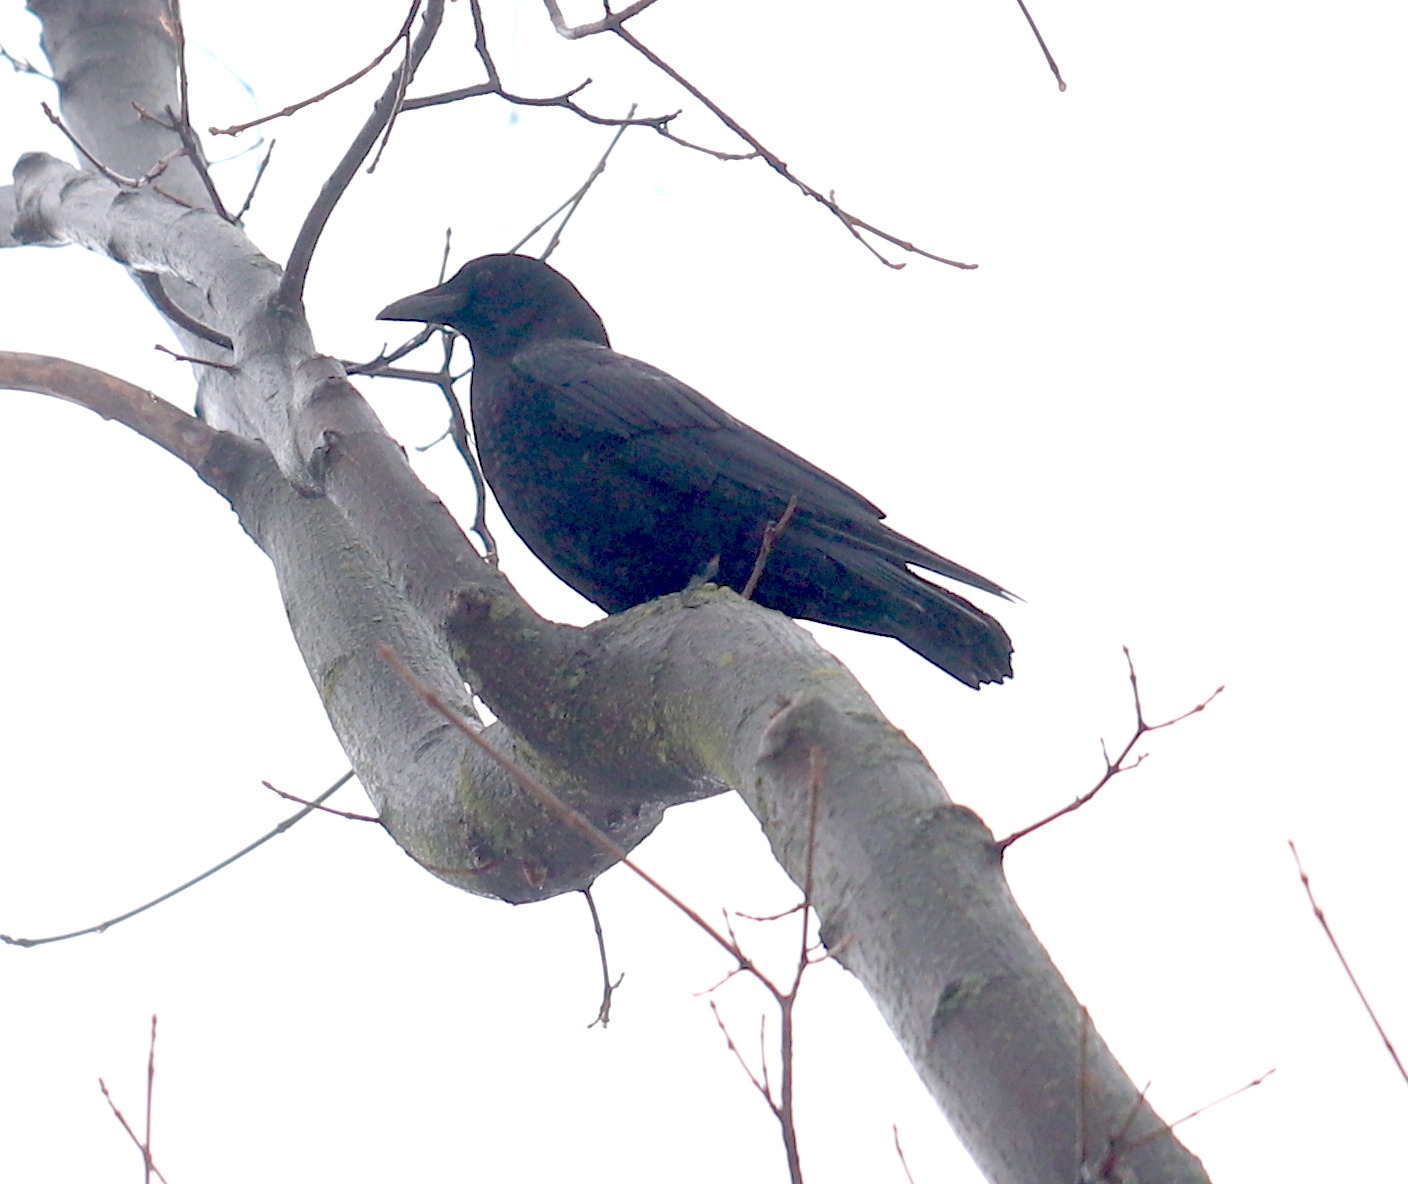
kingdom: Animalia
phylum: Chordata
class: Aves
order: Passeriformes
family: Corvidae
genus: Corvus
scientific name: Corvus brachyrhynchos
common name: American crow
